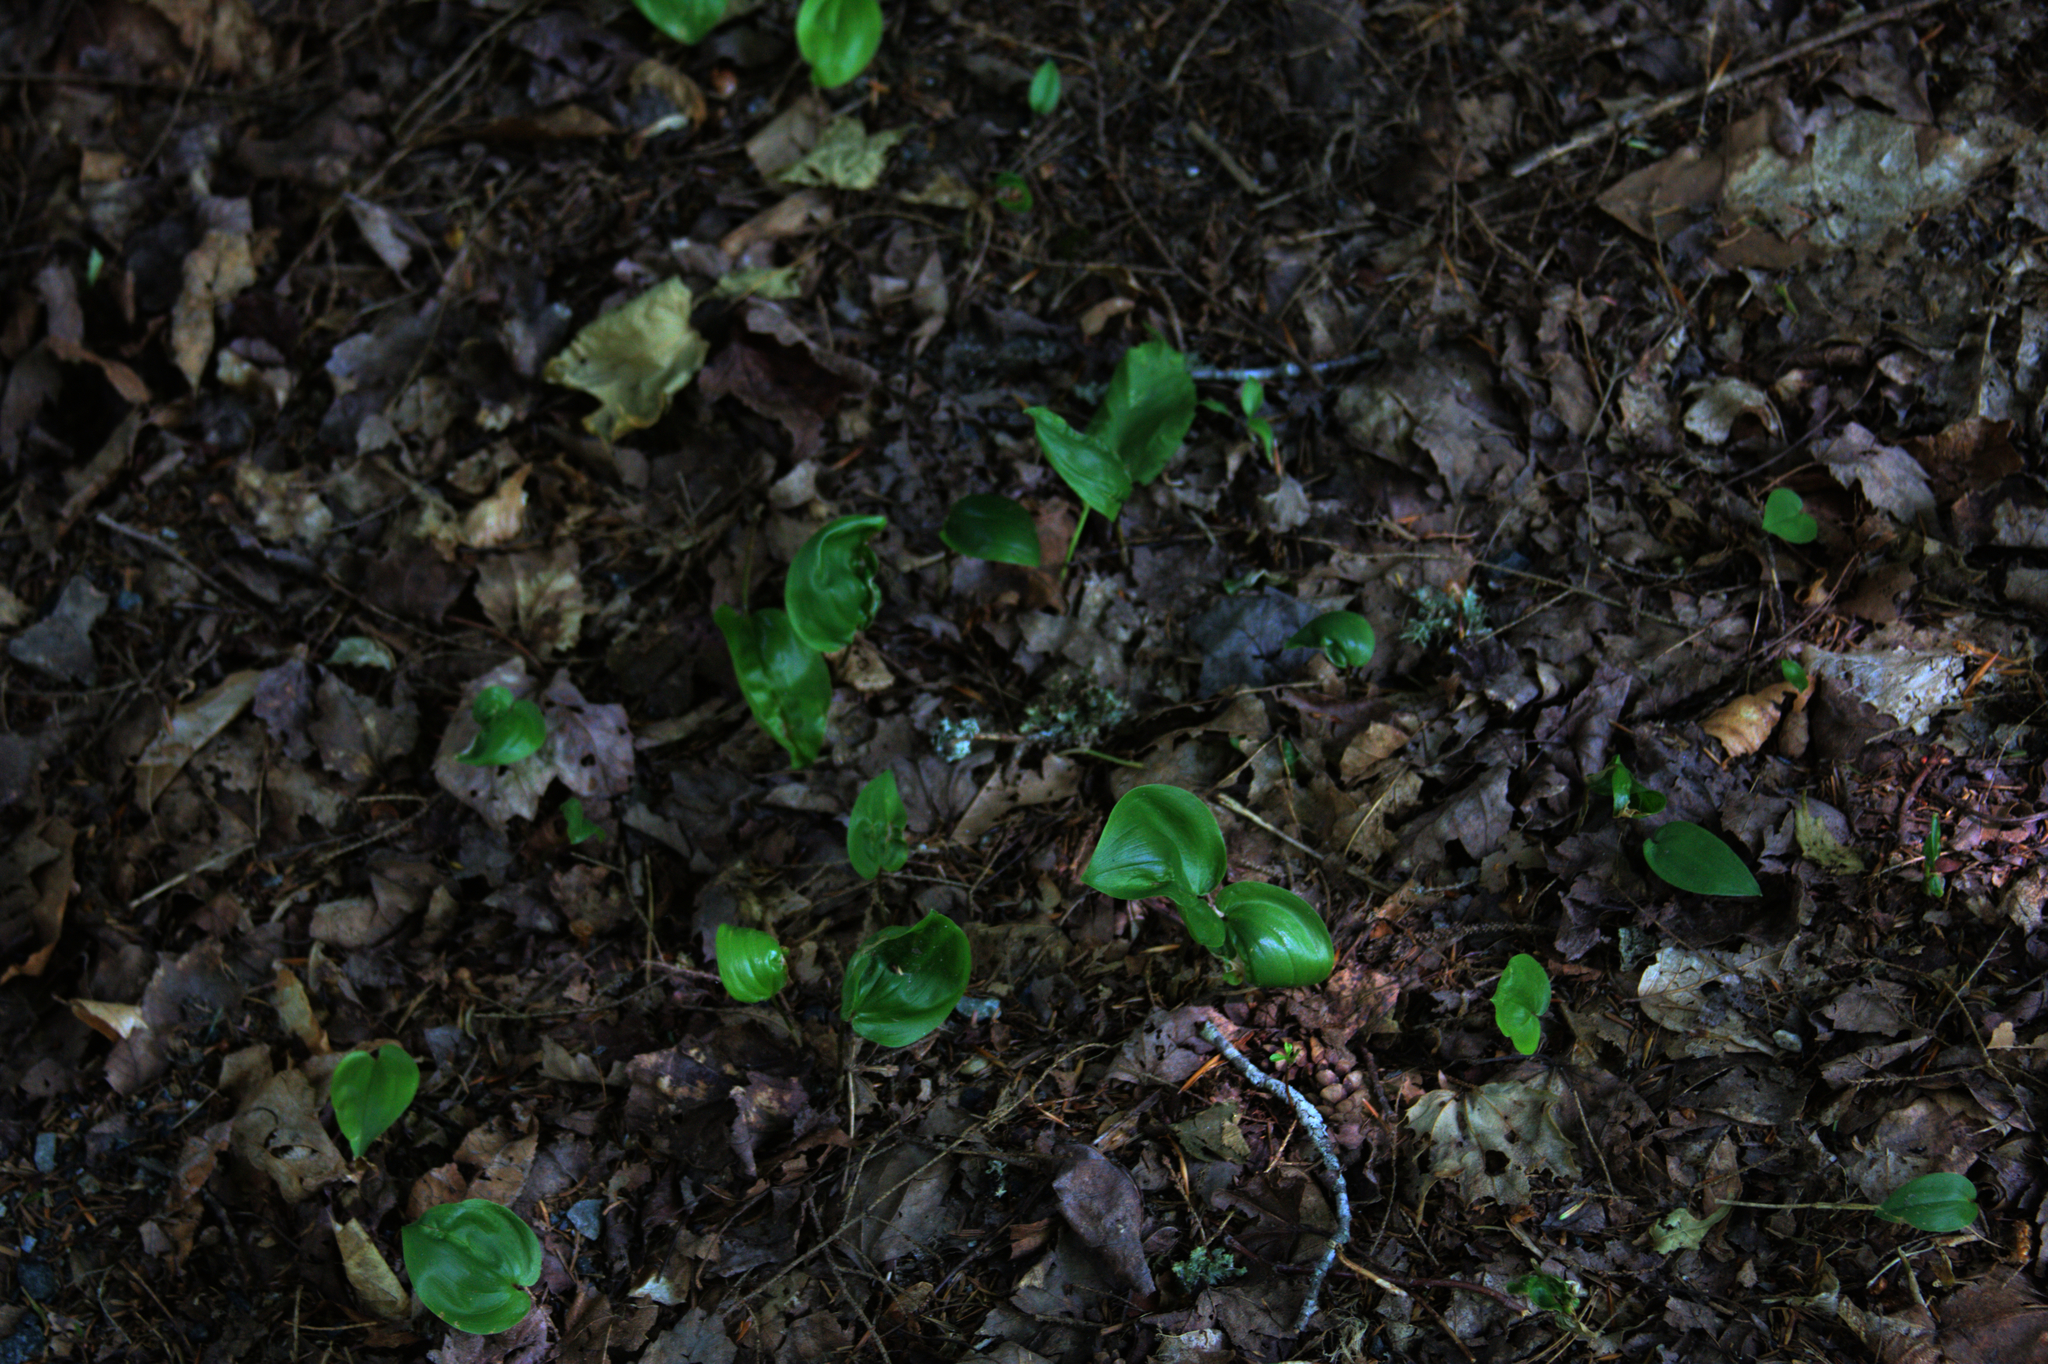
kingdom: Plantae
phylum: Tracheophyta
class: Liliopsida
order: Asparagales
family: Asparagaceae
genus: Maianthemum
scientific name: Maianthemum canadense
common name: False lily-of-the-valley
